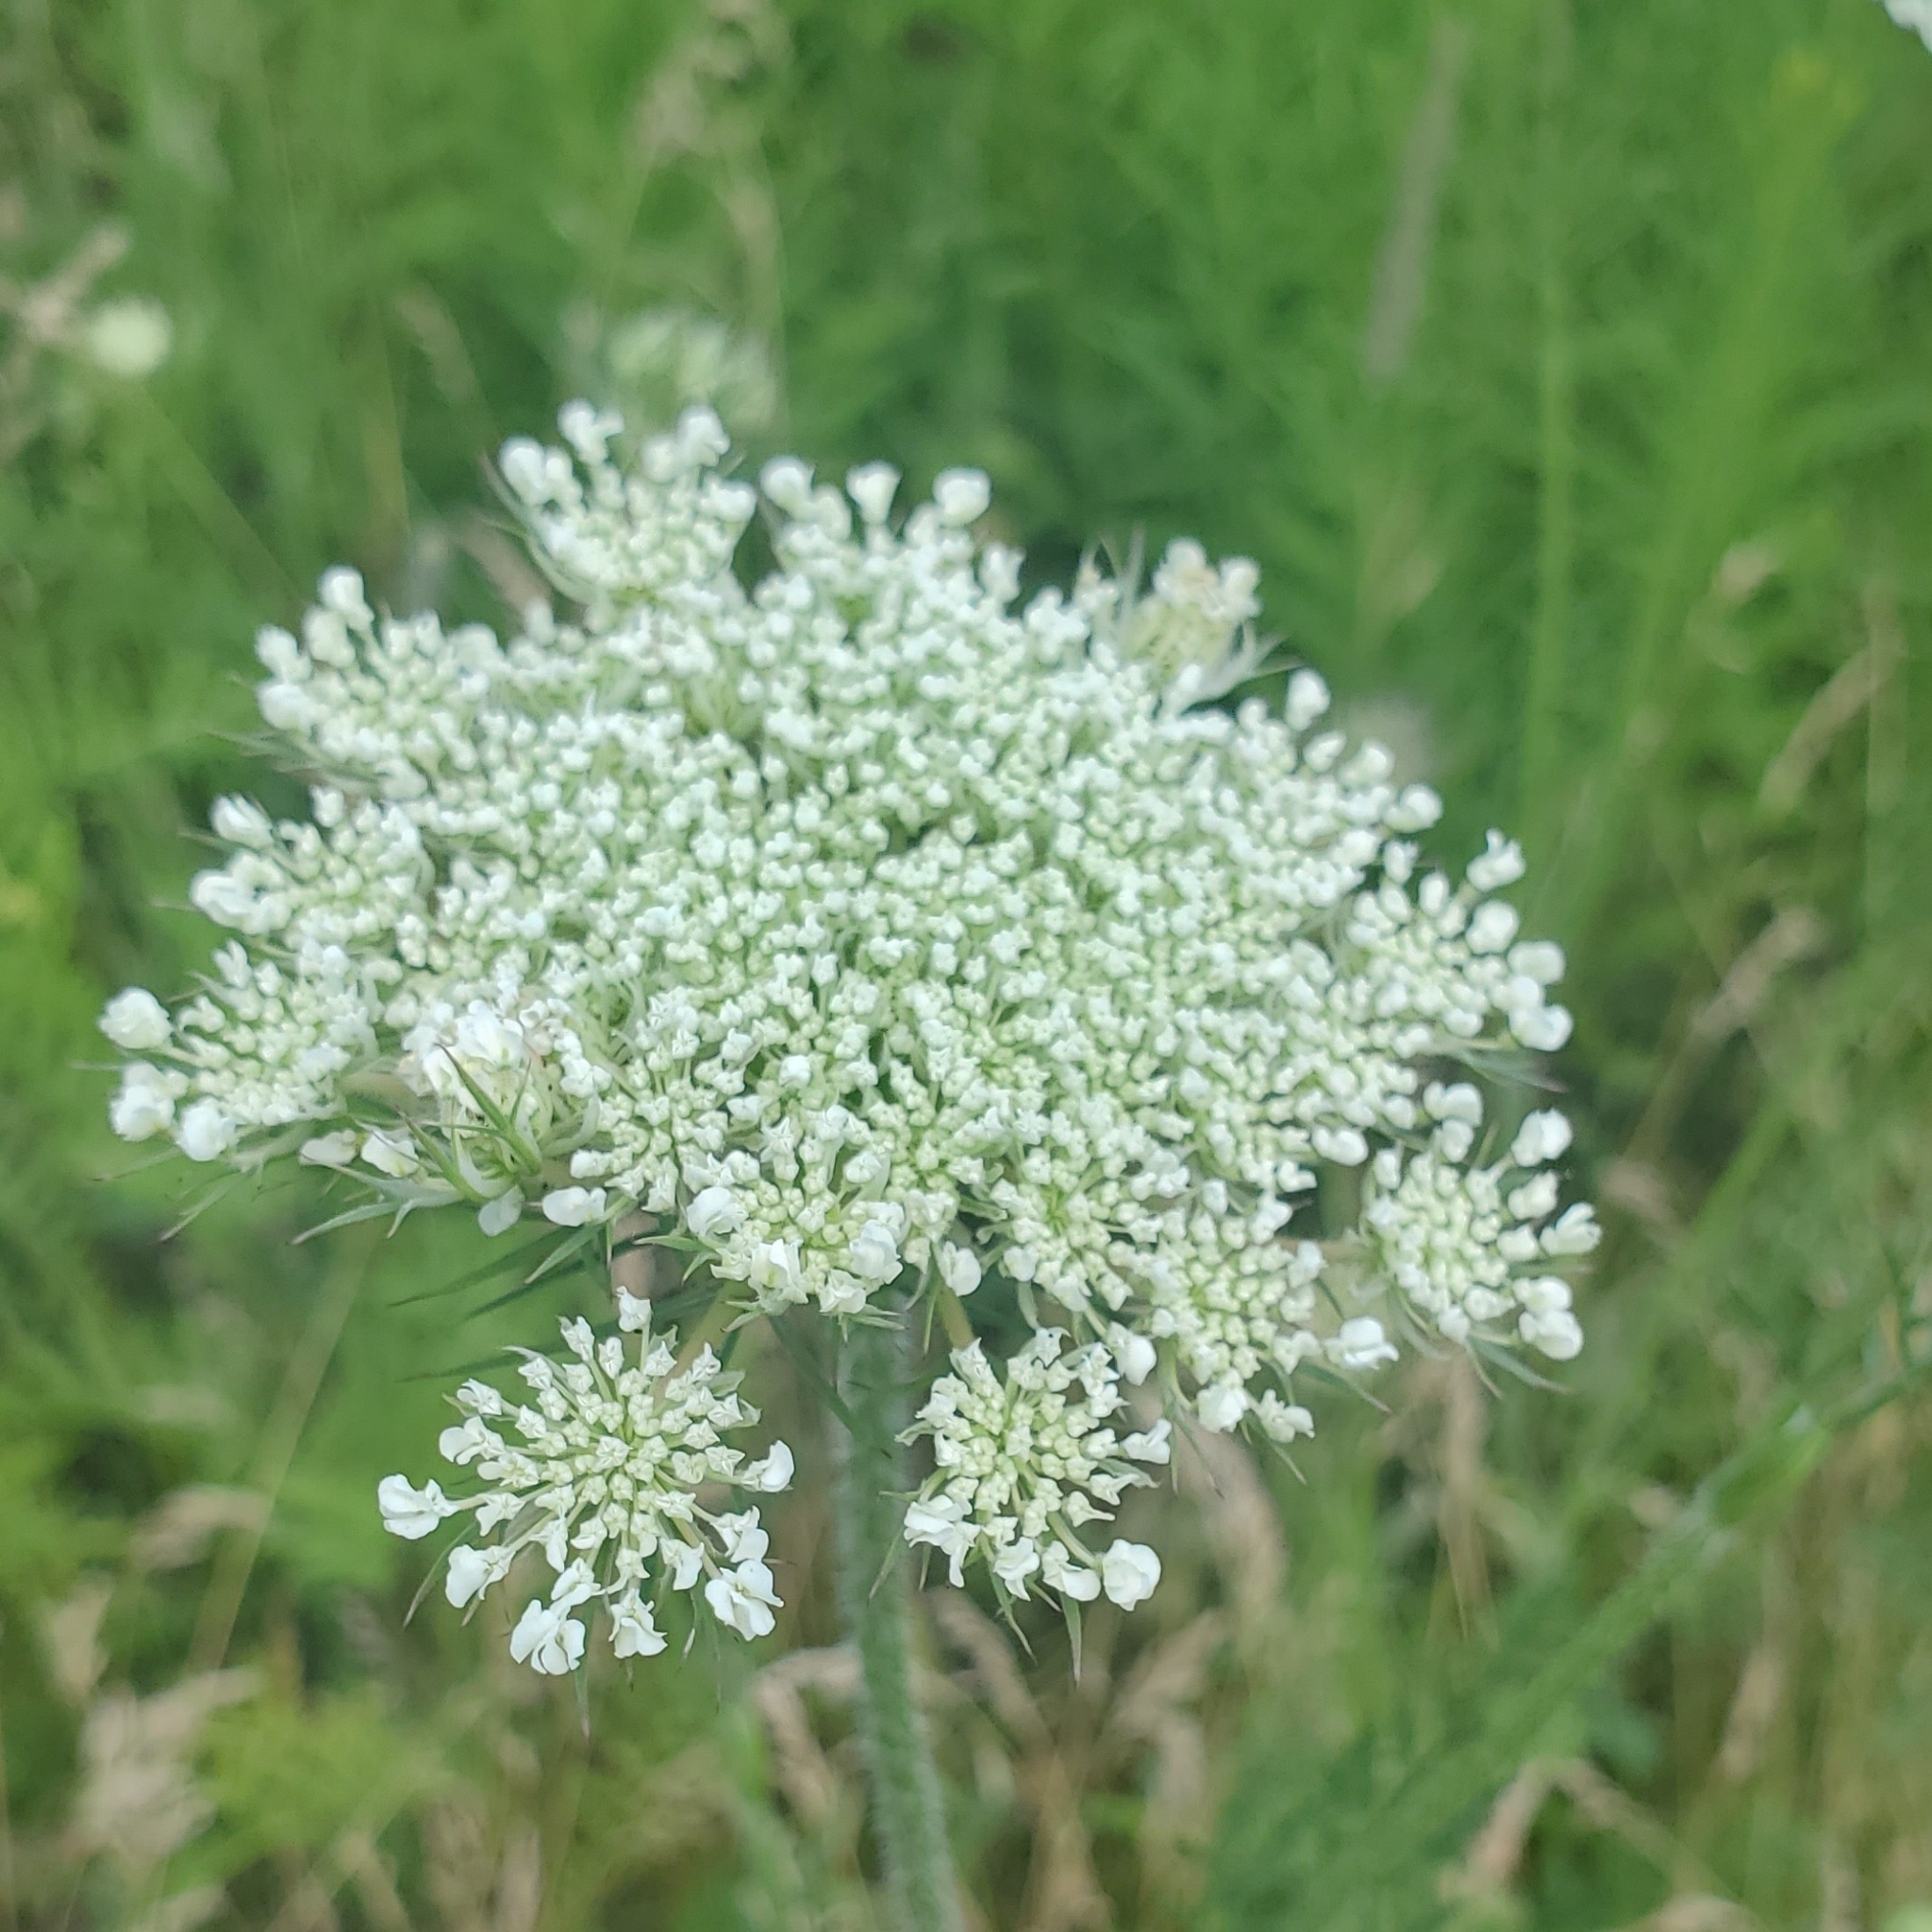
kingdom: Plantae
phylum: Tracheophyta
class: Magnoliopsida
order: Apiales
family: Apiaceae
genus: Daucus
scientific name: Daucus carota
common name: Wild carrot
